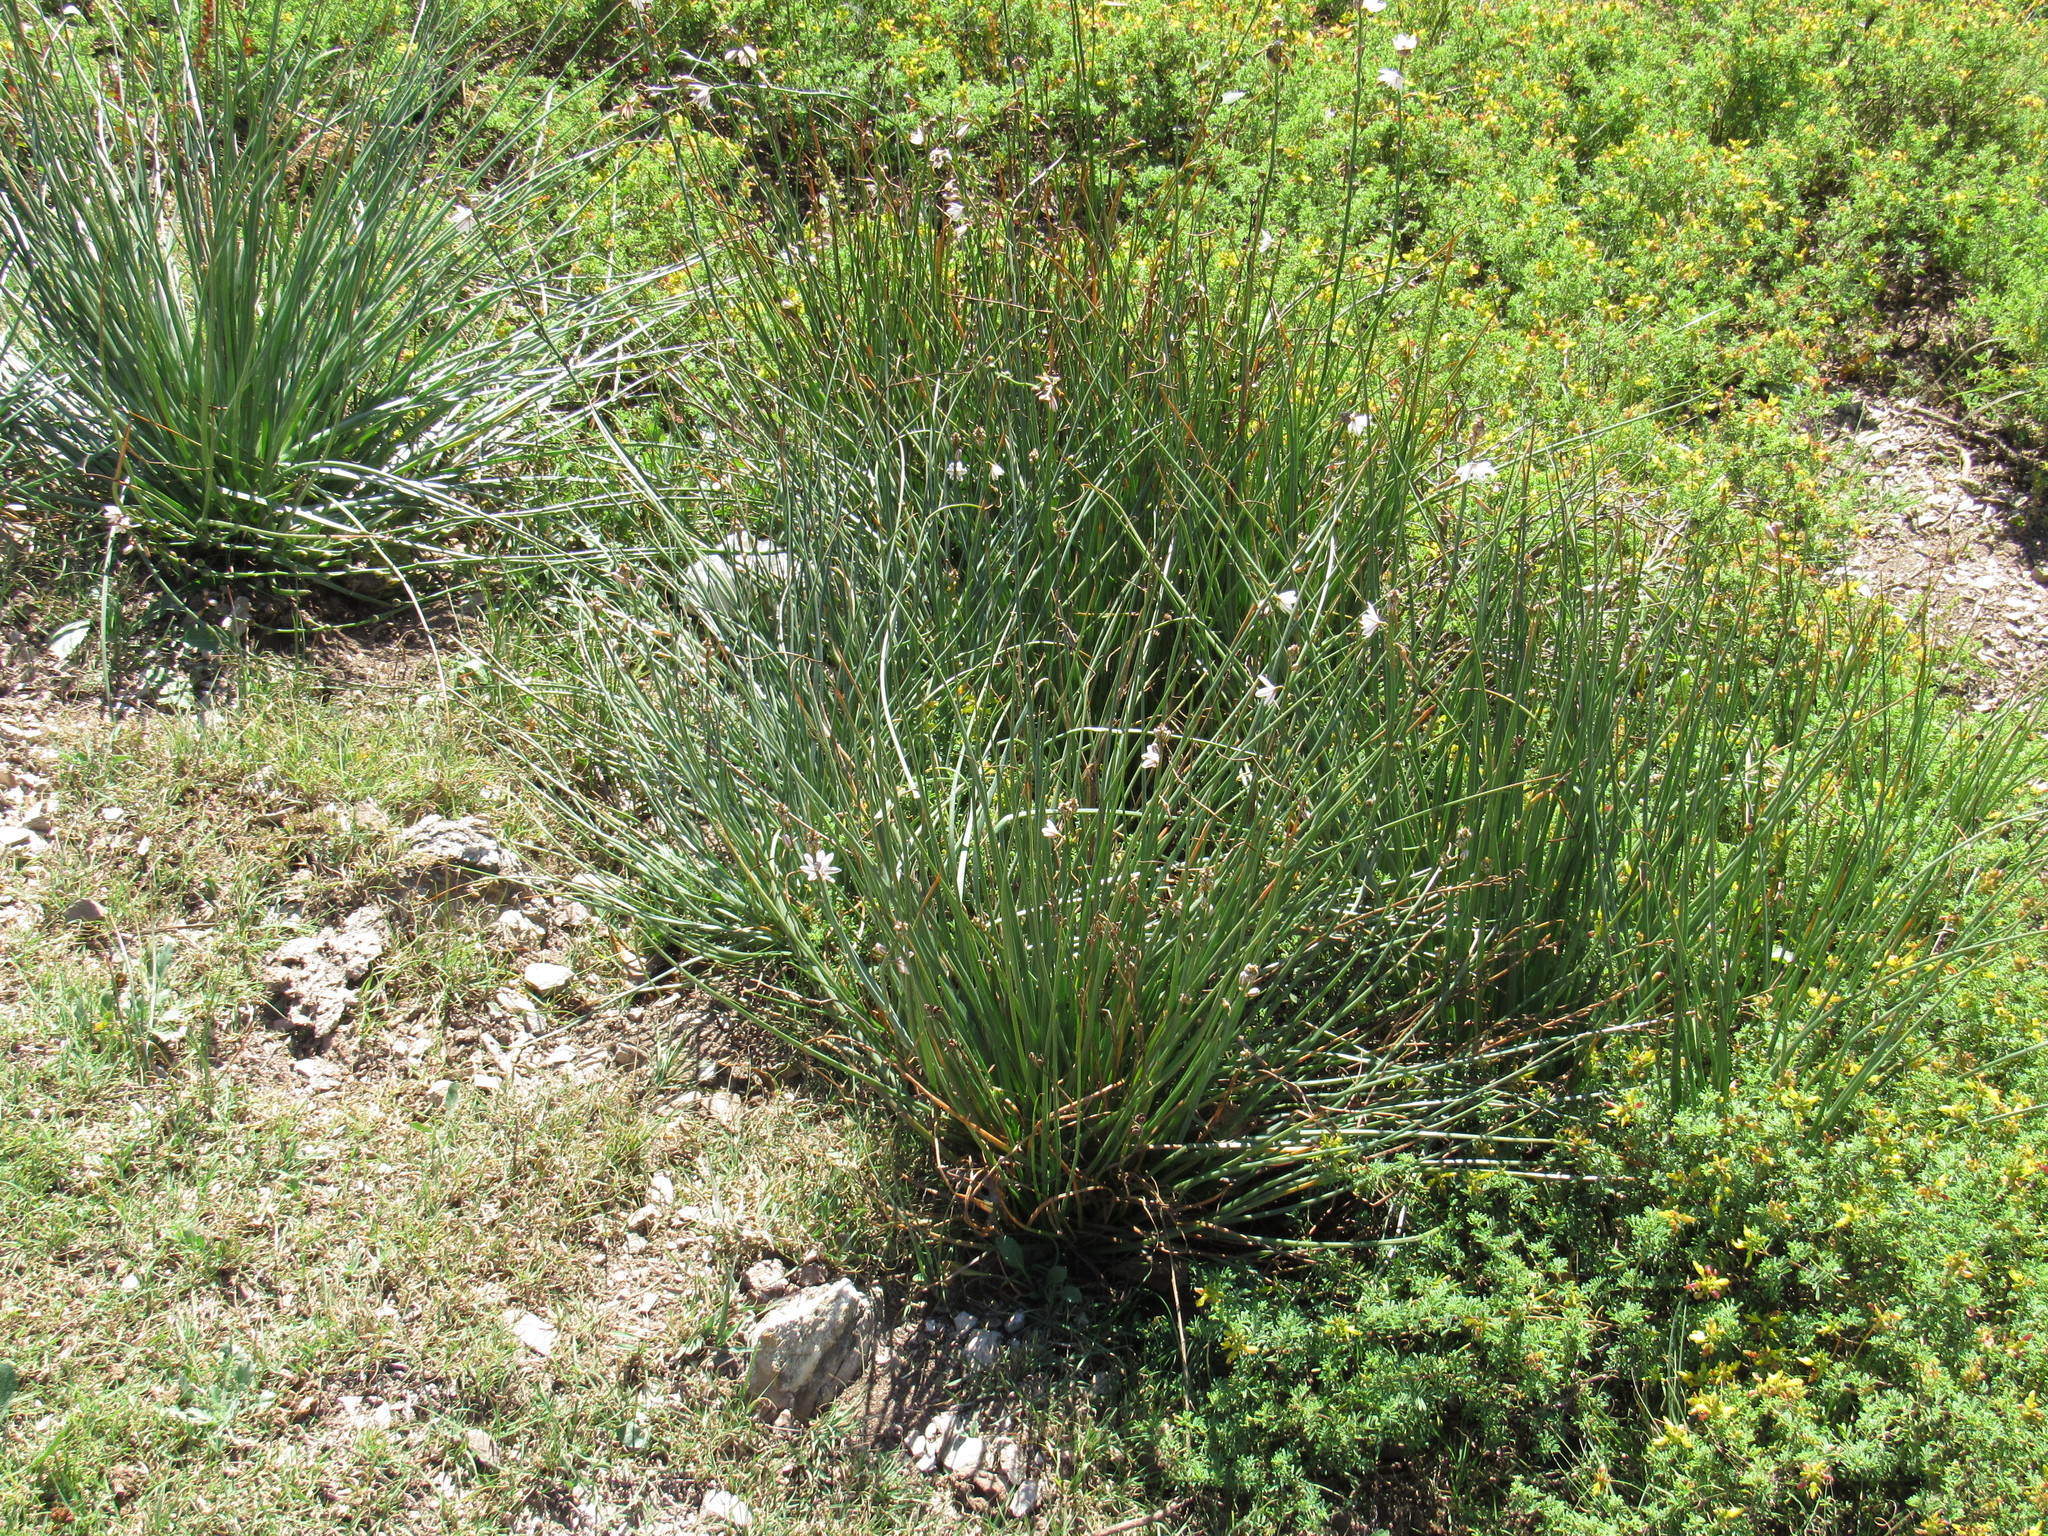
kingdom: Plantae
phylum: Tracheophyta
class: Liliopsida
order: Asparagales
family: Asphodelaceae
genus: Asphodelus
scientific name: Asphodelus fistulosus
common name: Onionweed
